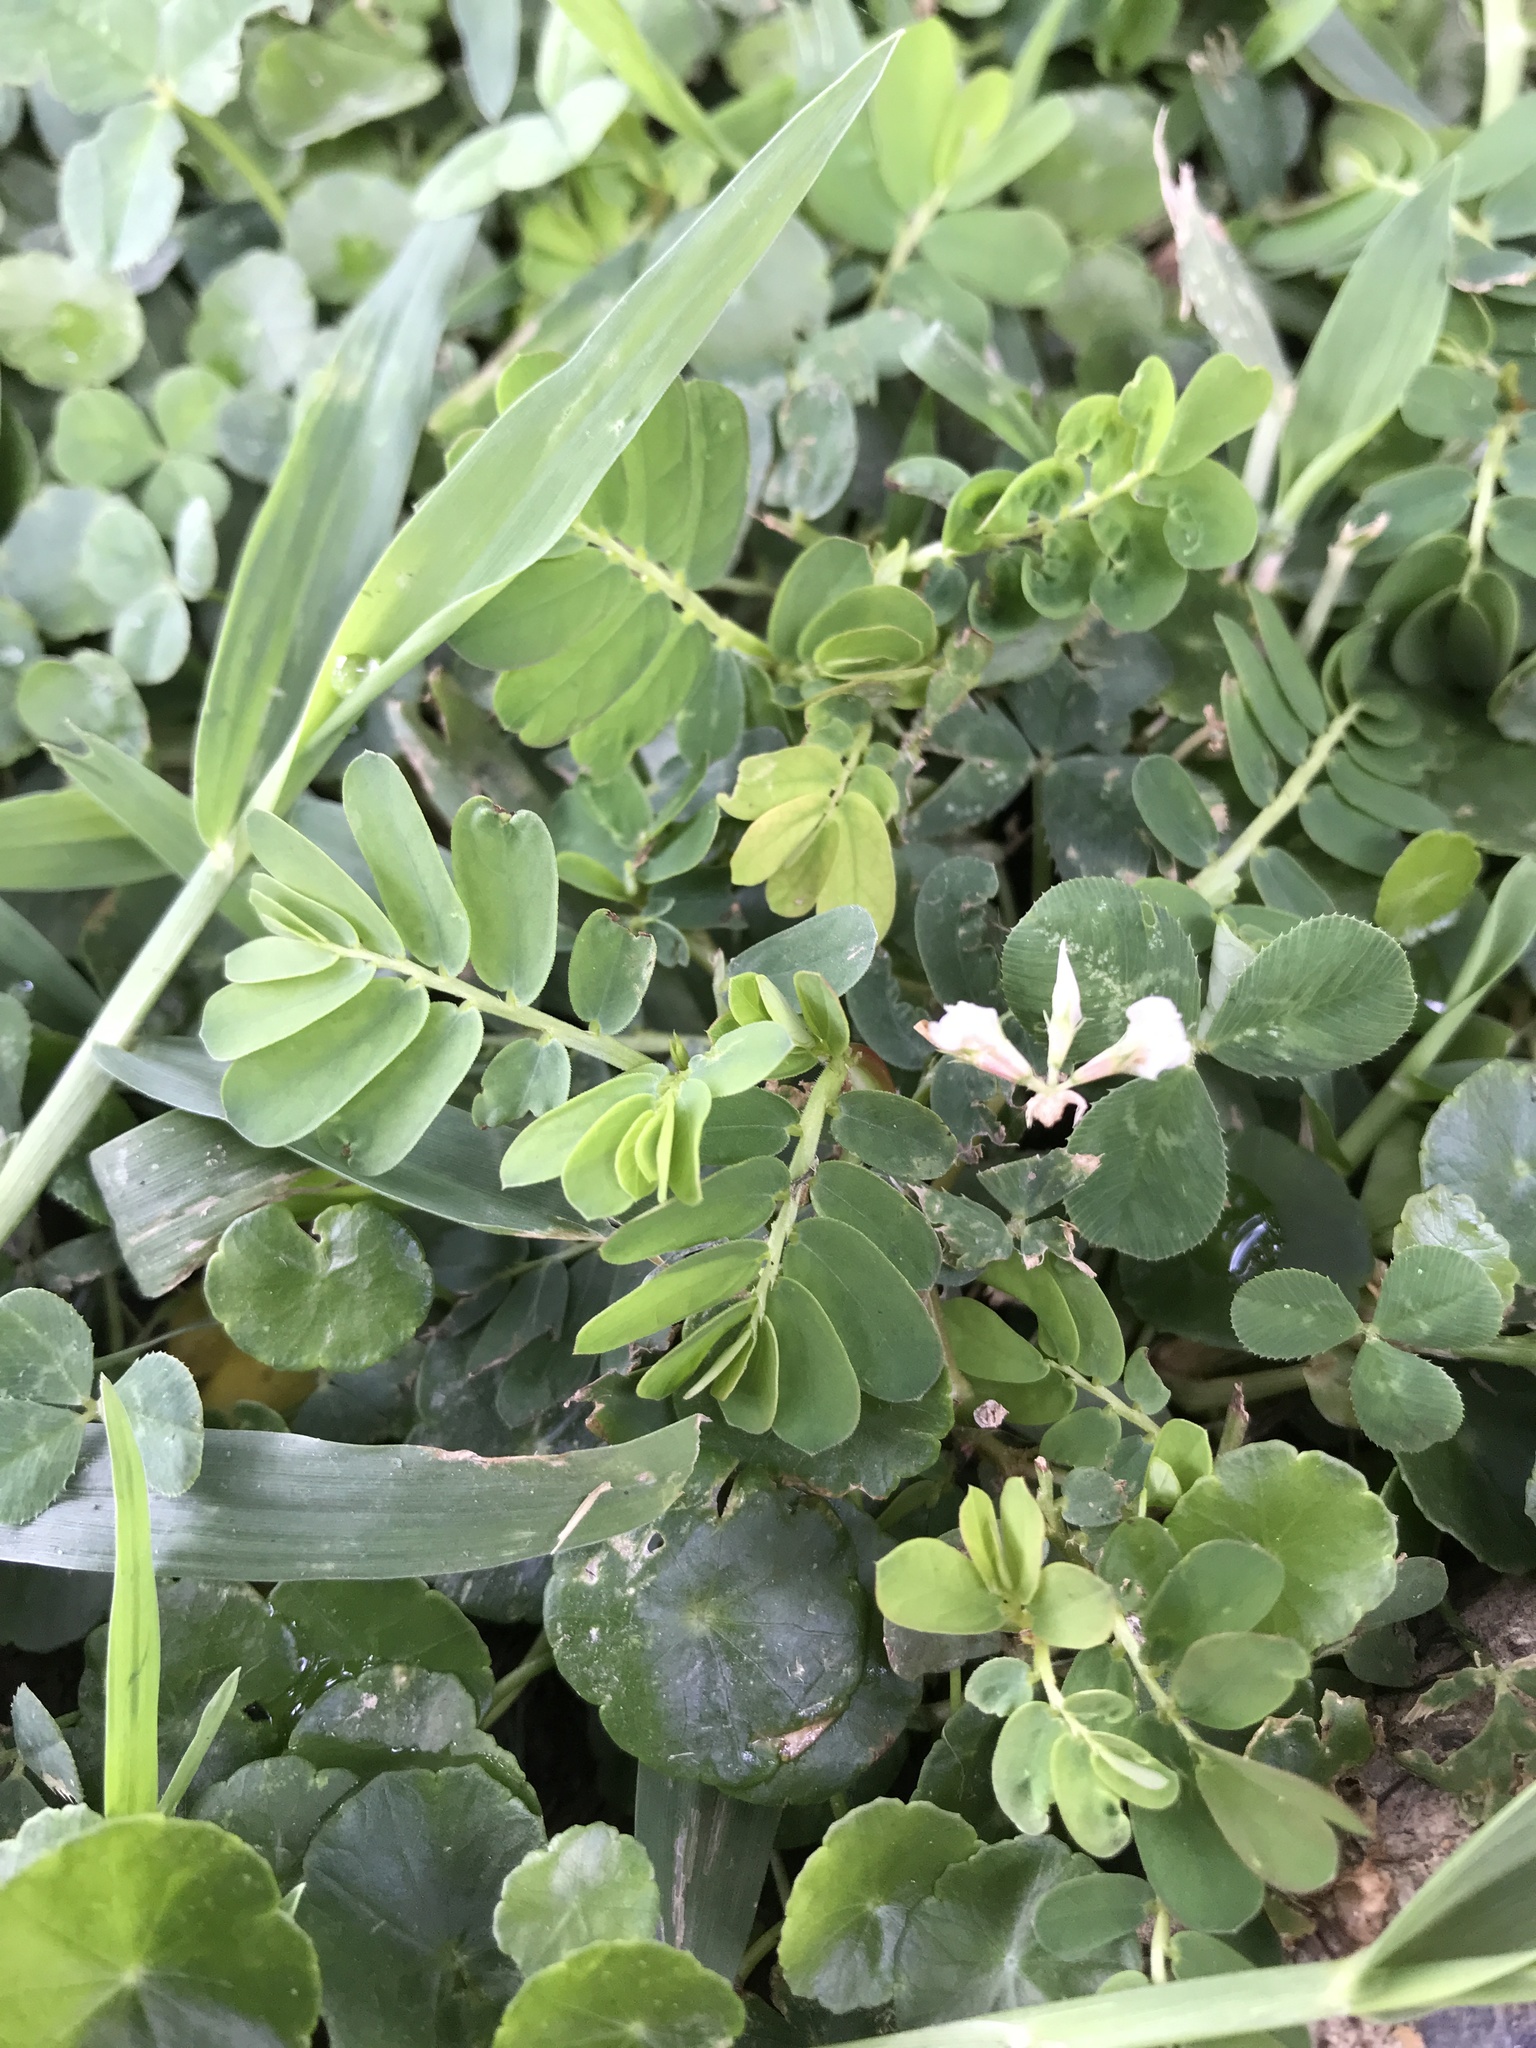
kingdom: Plantae
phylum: Tracheophyta
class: Magnoliopsida
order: Malpighiales
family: Phyllanthaceae
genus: Phyllanthus
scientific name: Phyllanthus urinaria
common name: Chamber bitter
